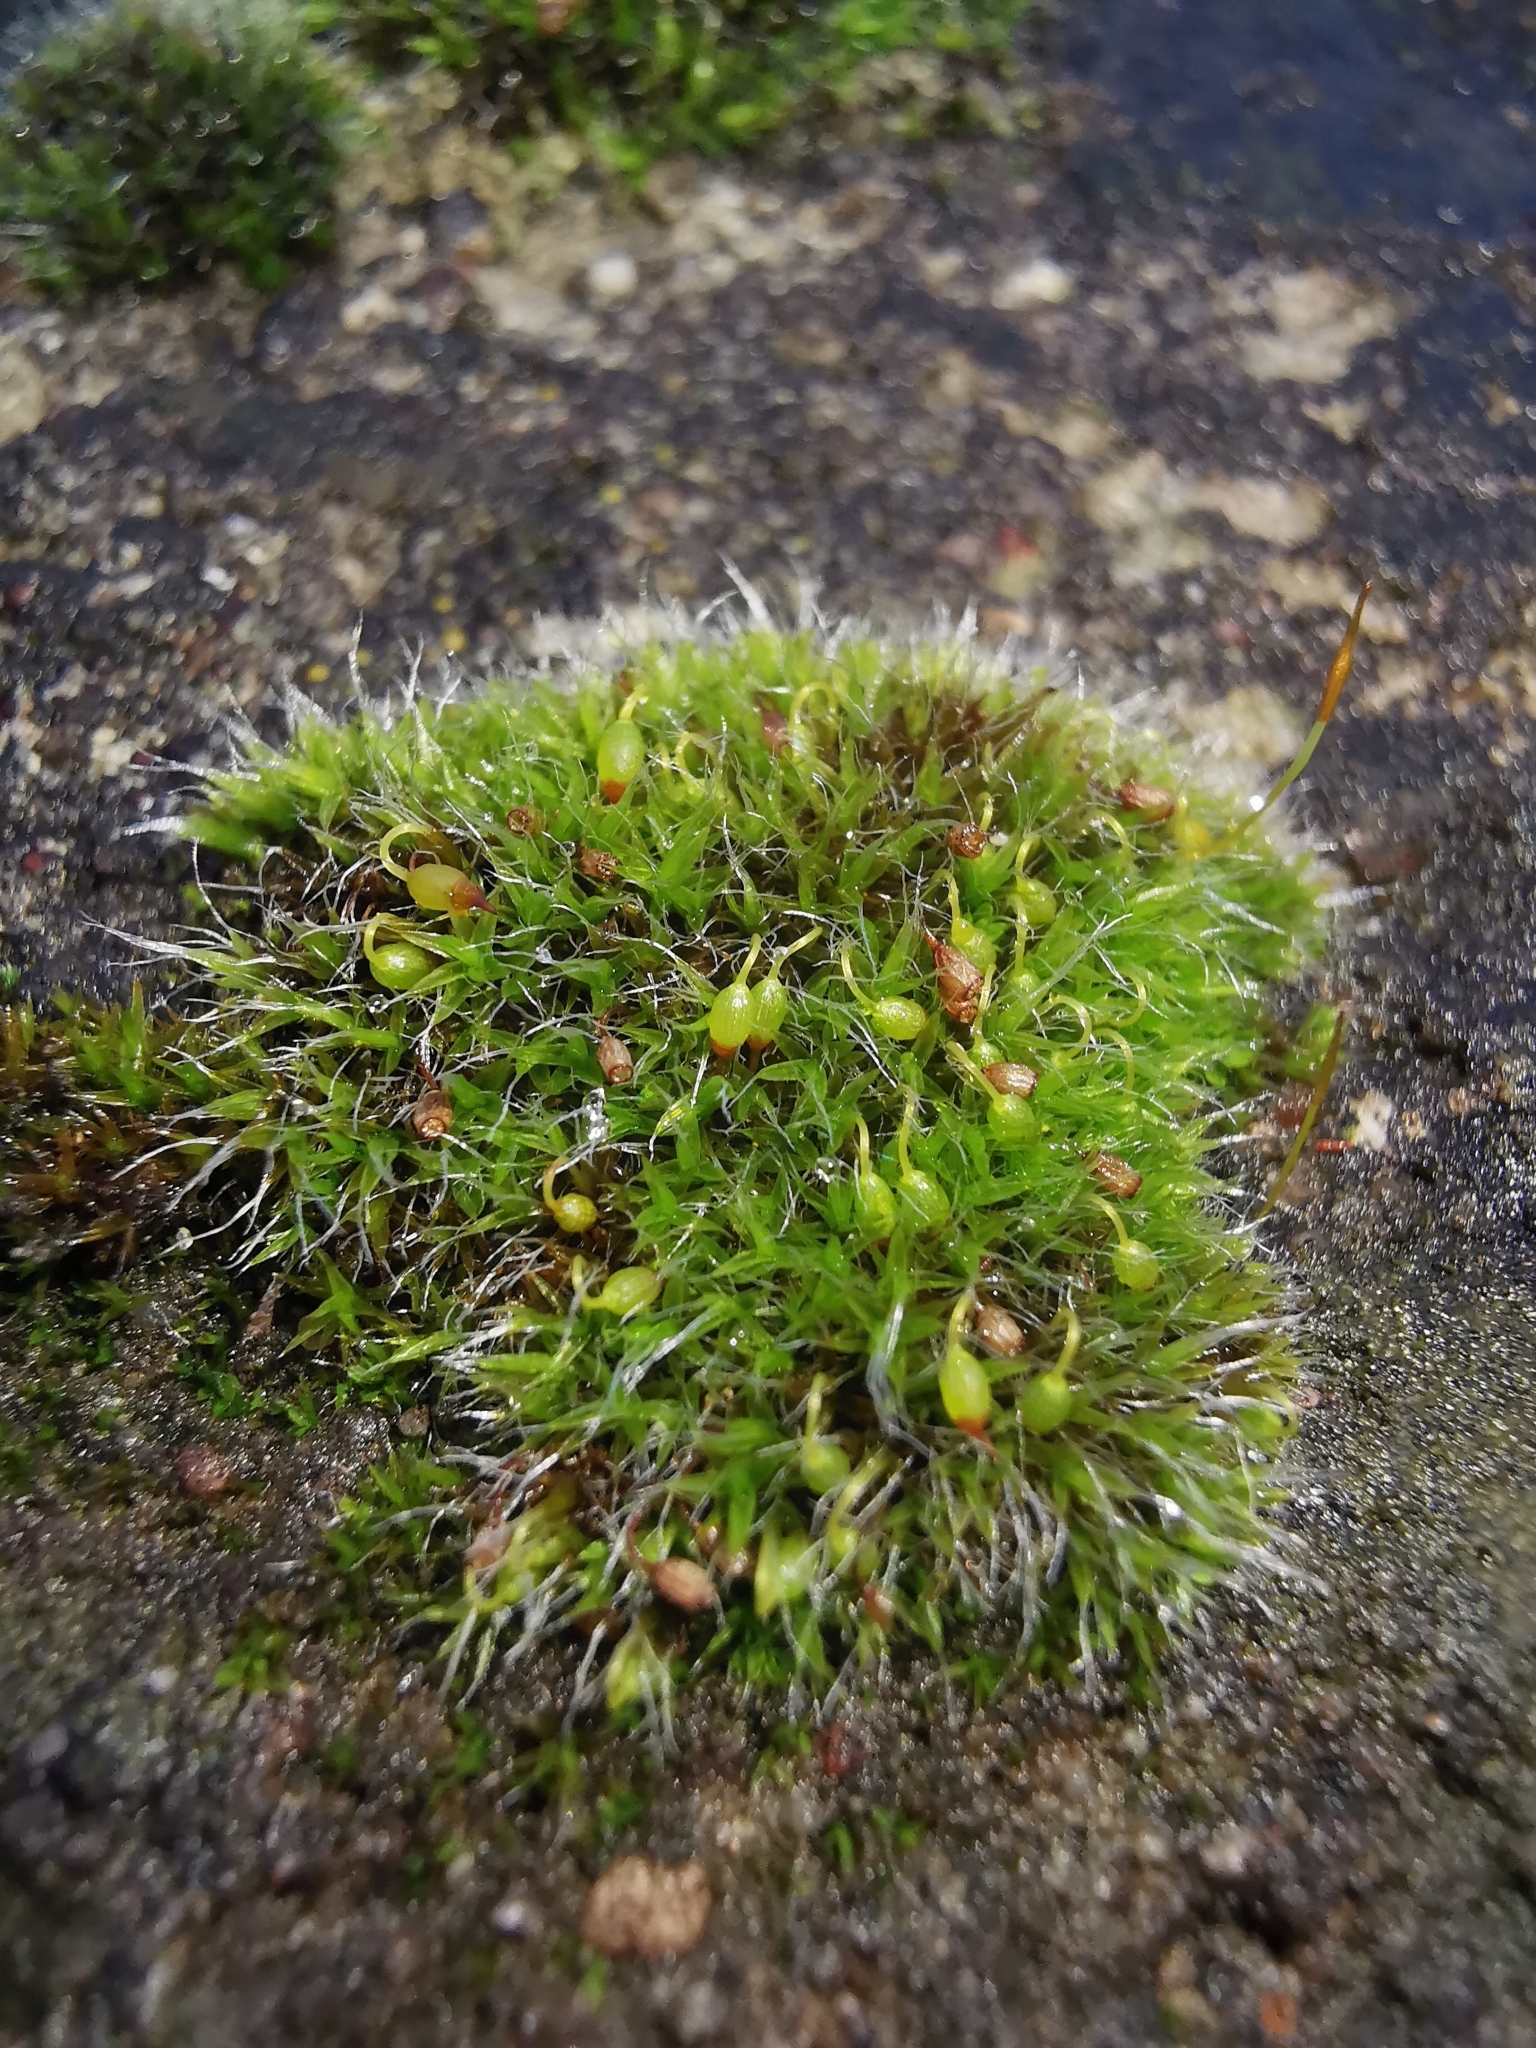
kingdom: Plantae
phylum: Bryophyta
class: Bryopsida
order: Grimmiales
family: Grimmiaceae
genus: Grimmia
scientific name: Grimmia pulvinata
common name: Grey-cushioned grimmia
